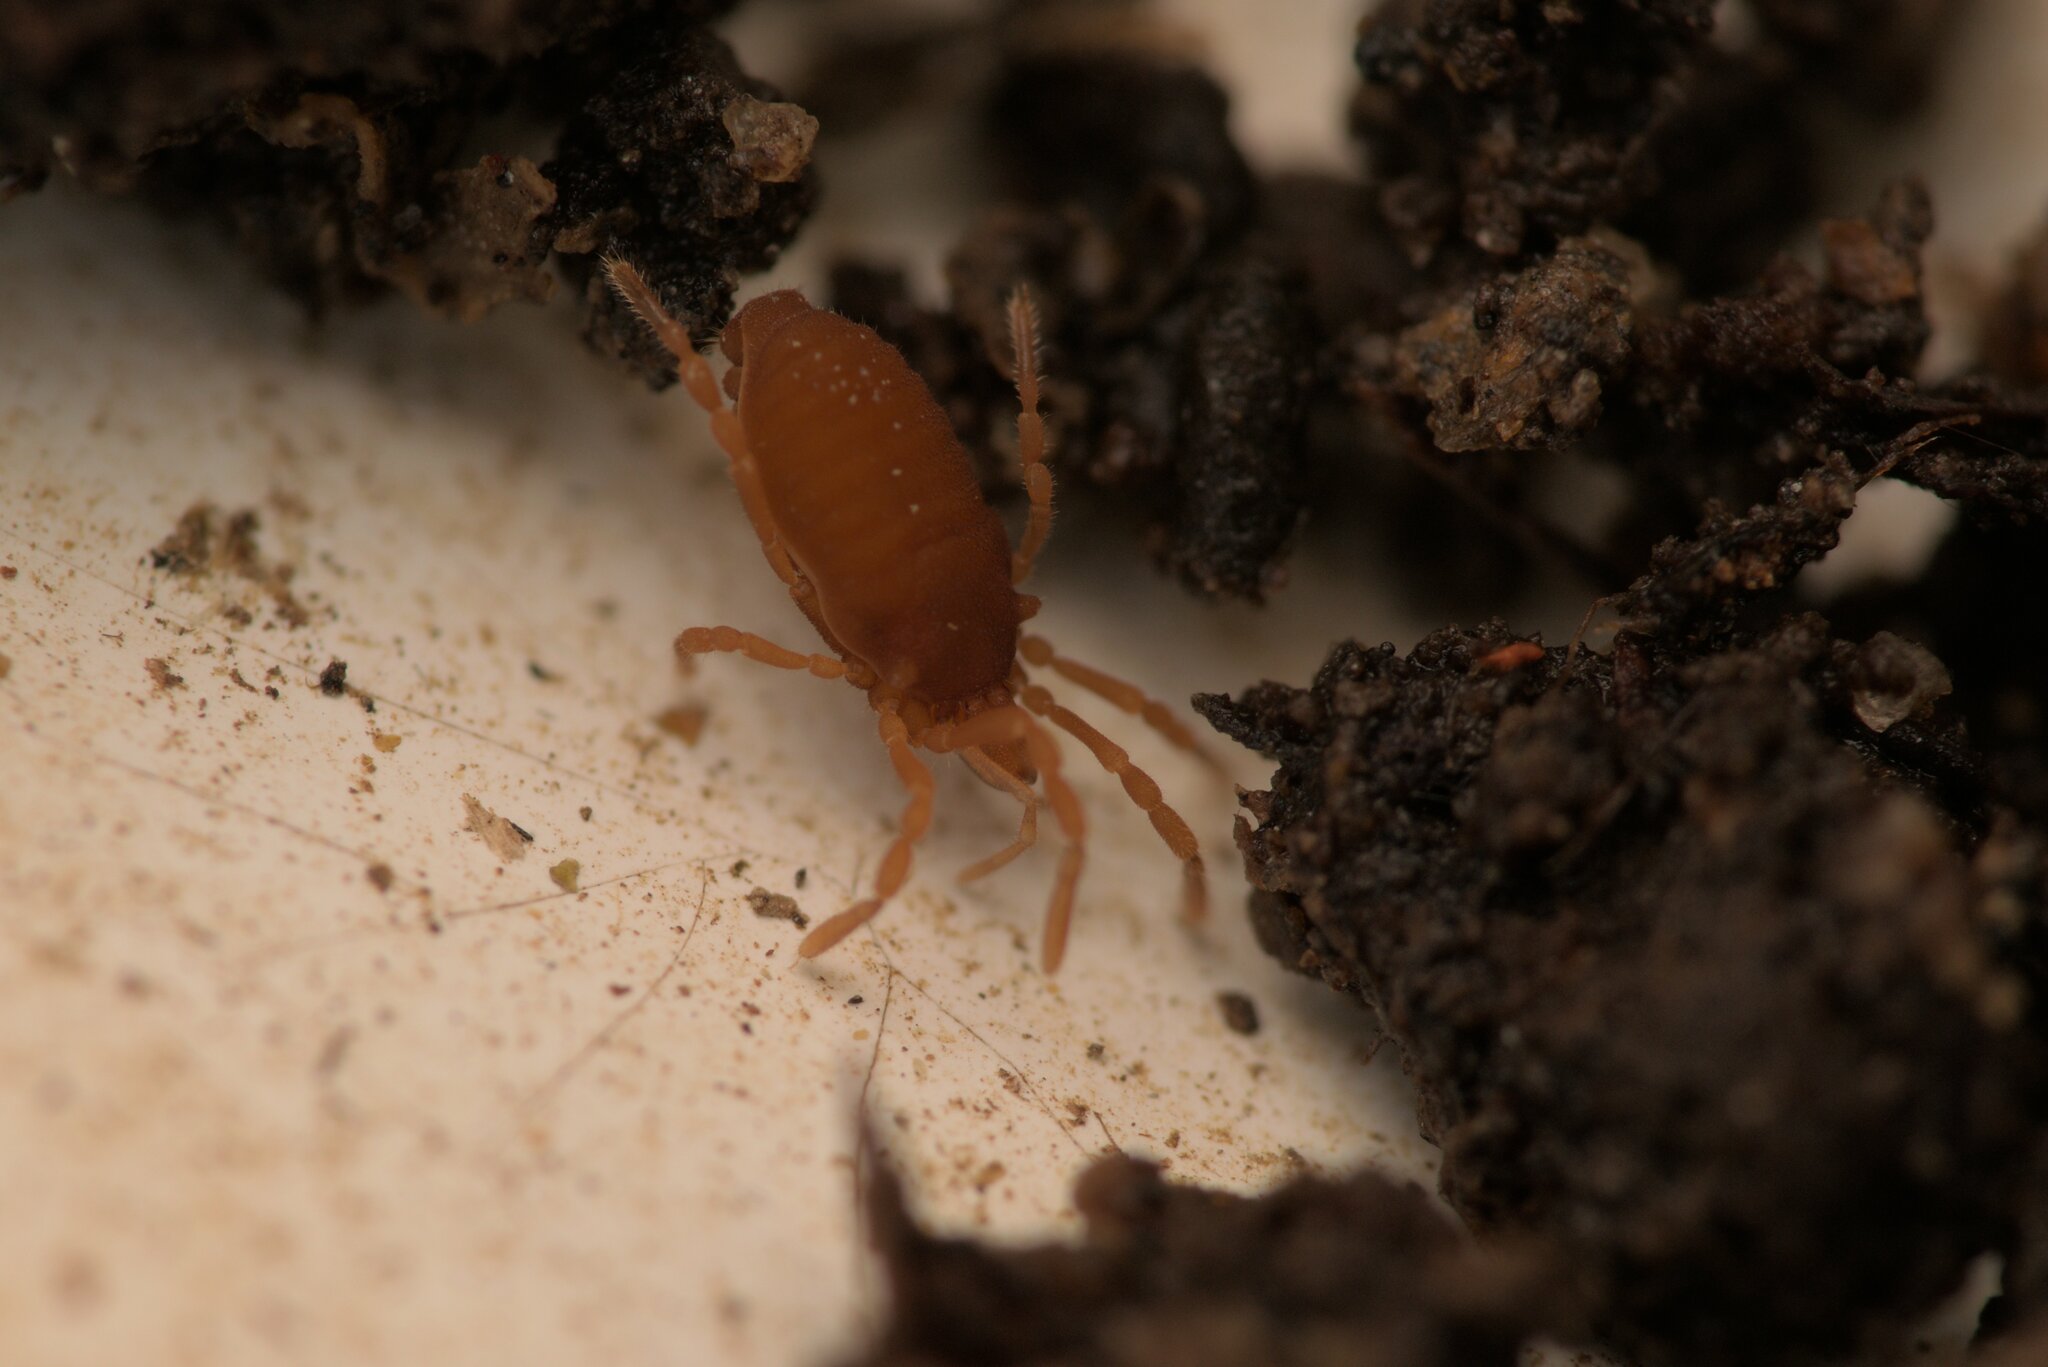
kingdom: Animalia
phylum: Arthropoda
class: Arachnida
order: Opiliones
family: Sironidae
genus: Siro
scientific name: Siro rubens
